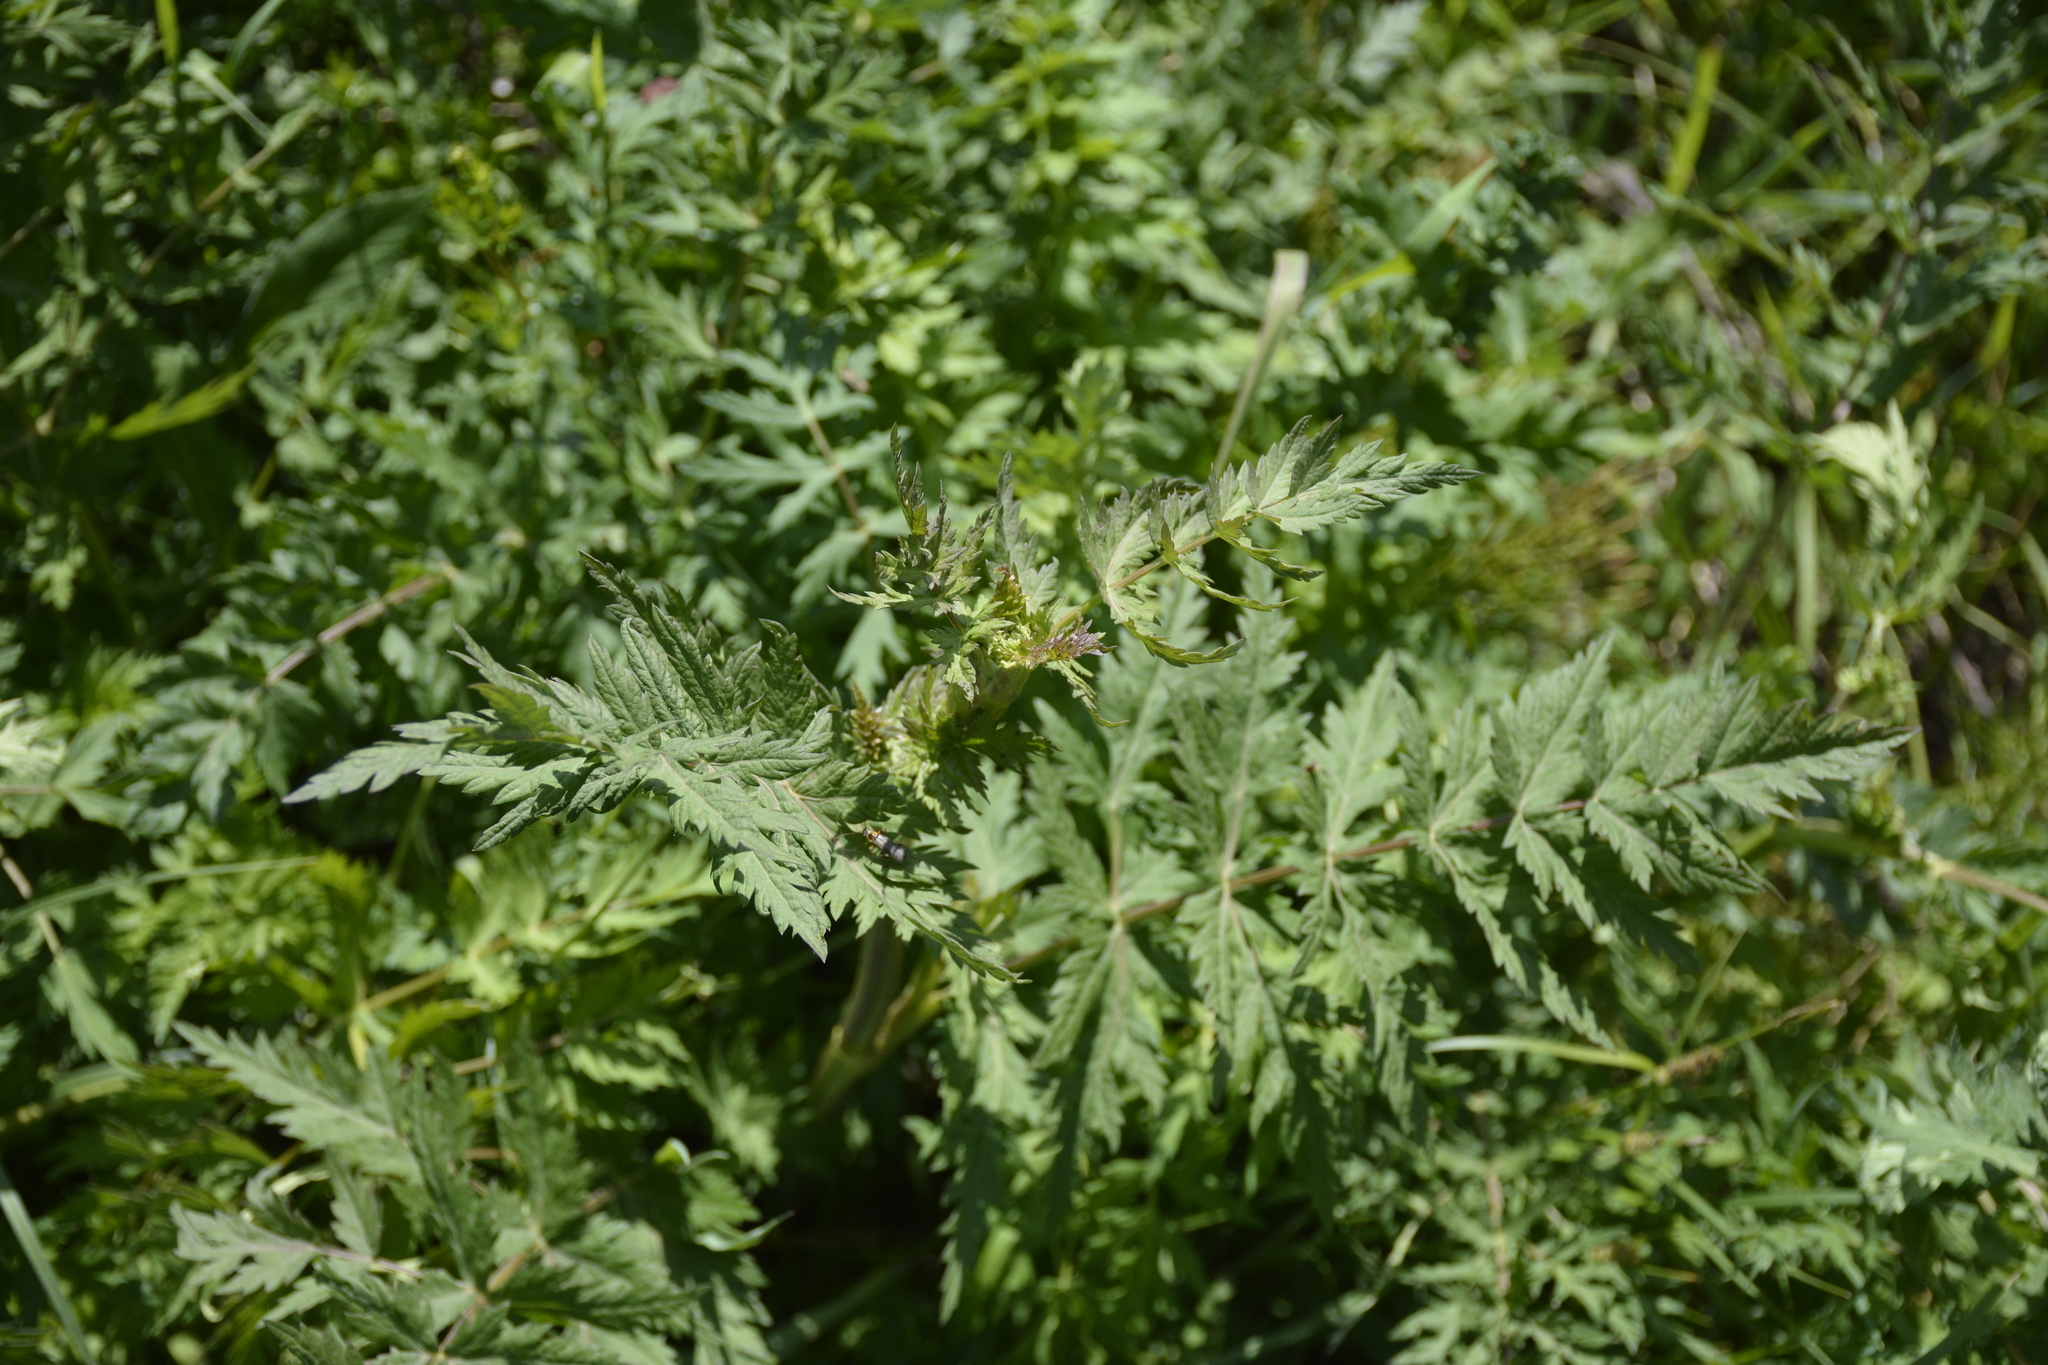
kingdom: Plantae
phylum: Tracheophyta
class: Magnoliopsida
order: Apiales
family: Apiaceae
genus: Seseli
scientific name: Seseli libanotis
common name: Mooncarrot
